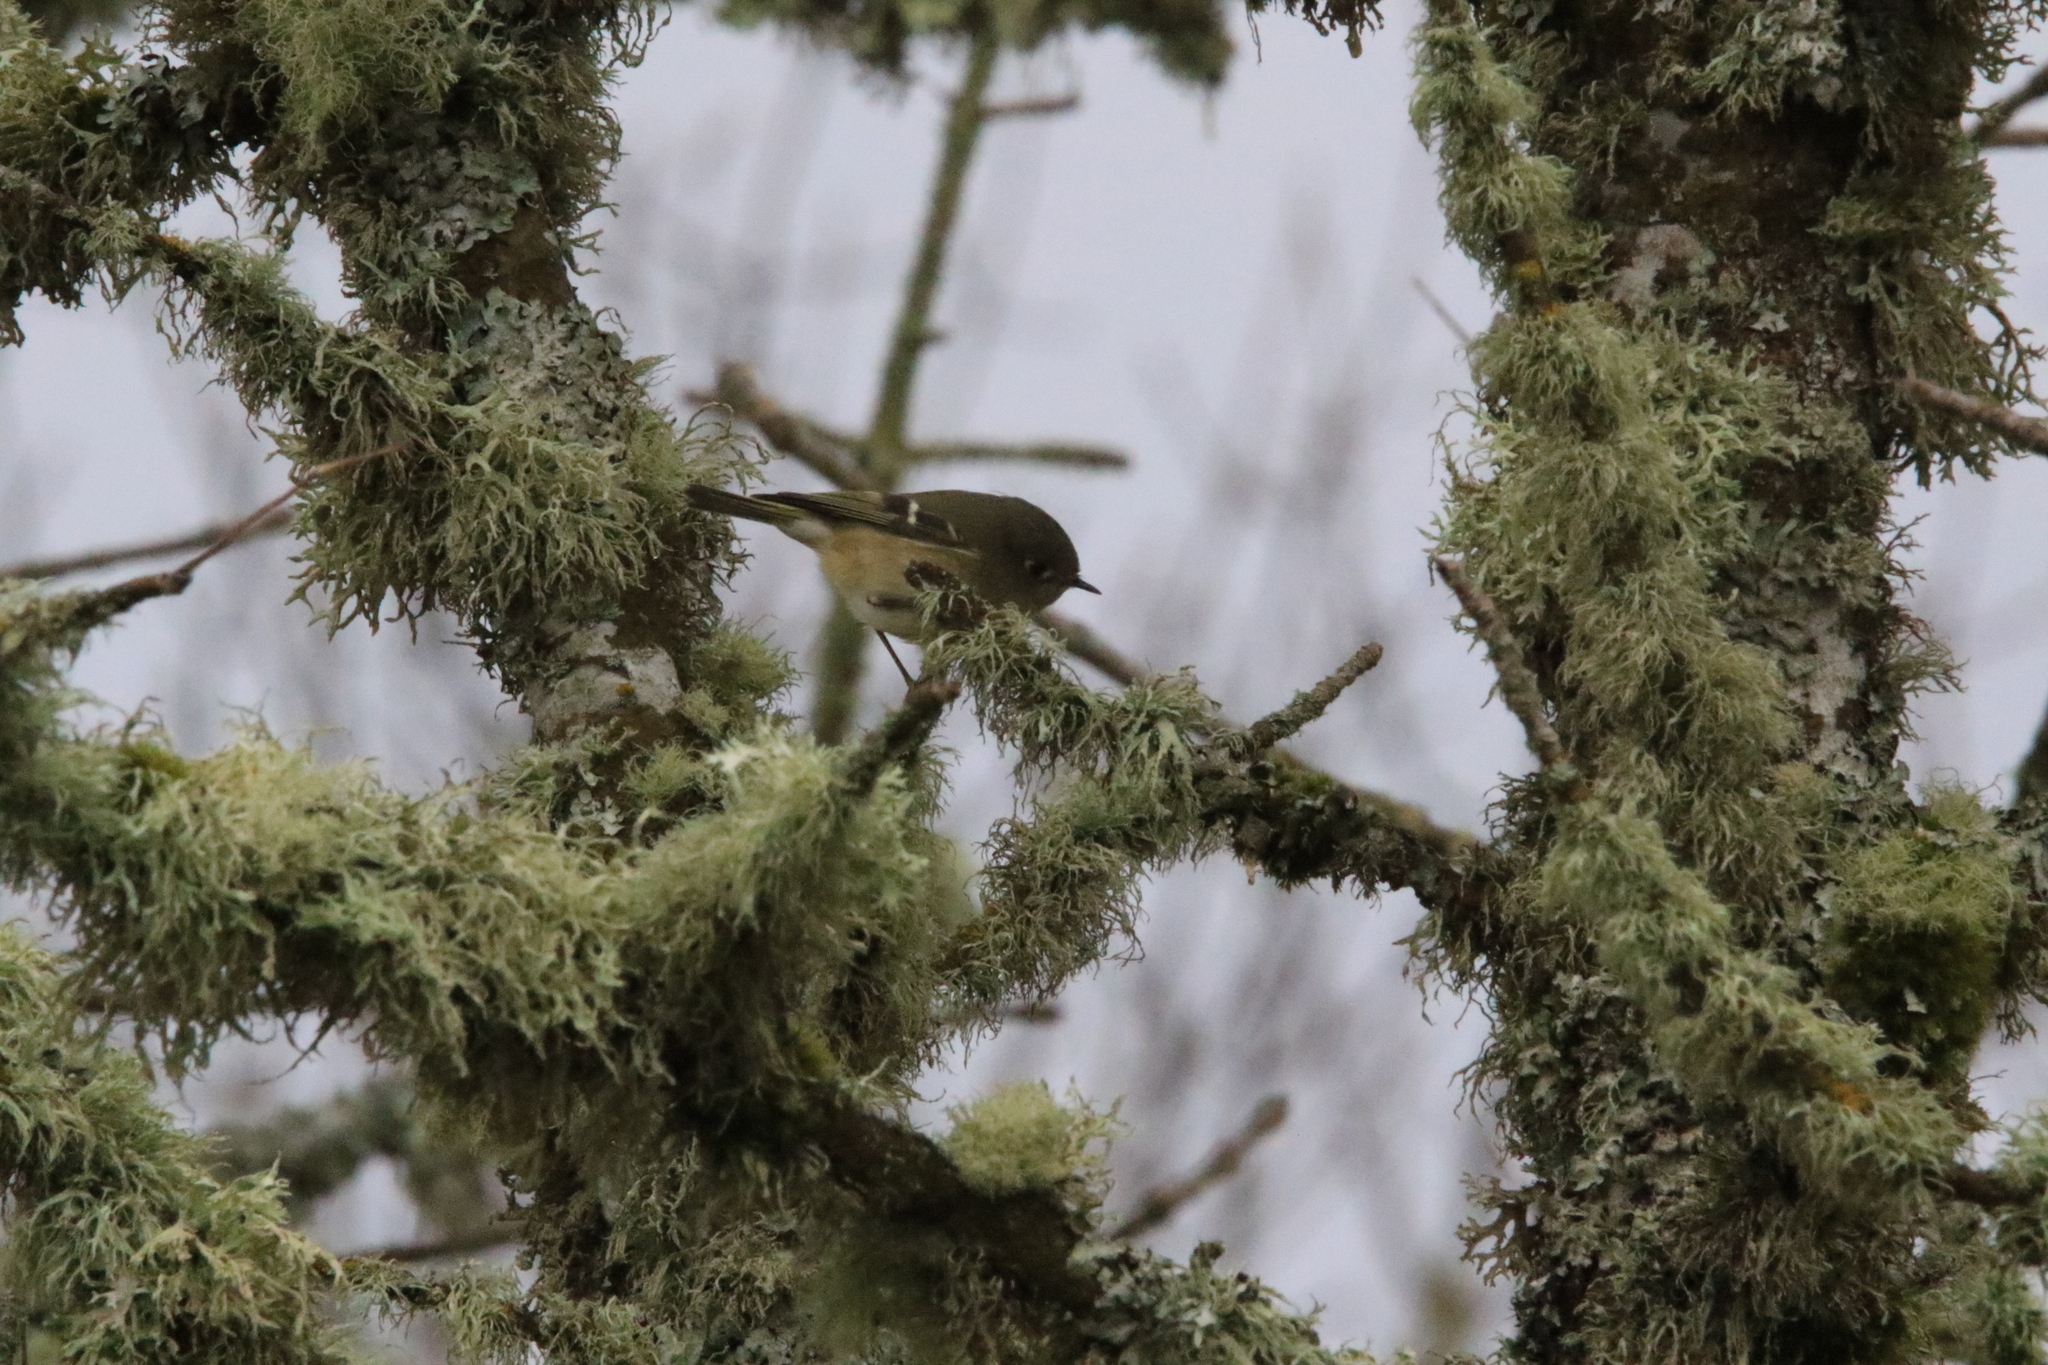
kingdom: Animalia
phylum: Chordata
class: Aves
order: Passeriformes
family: Regulidae
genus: Regulus
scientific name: Regulus calendula
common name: Ruby-crowned kinglet
